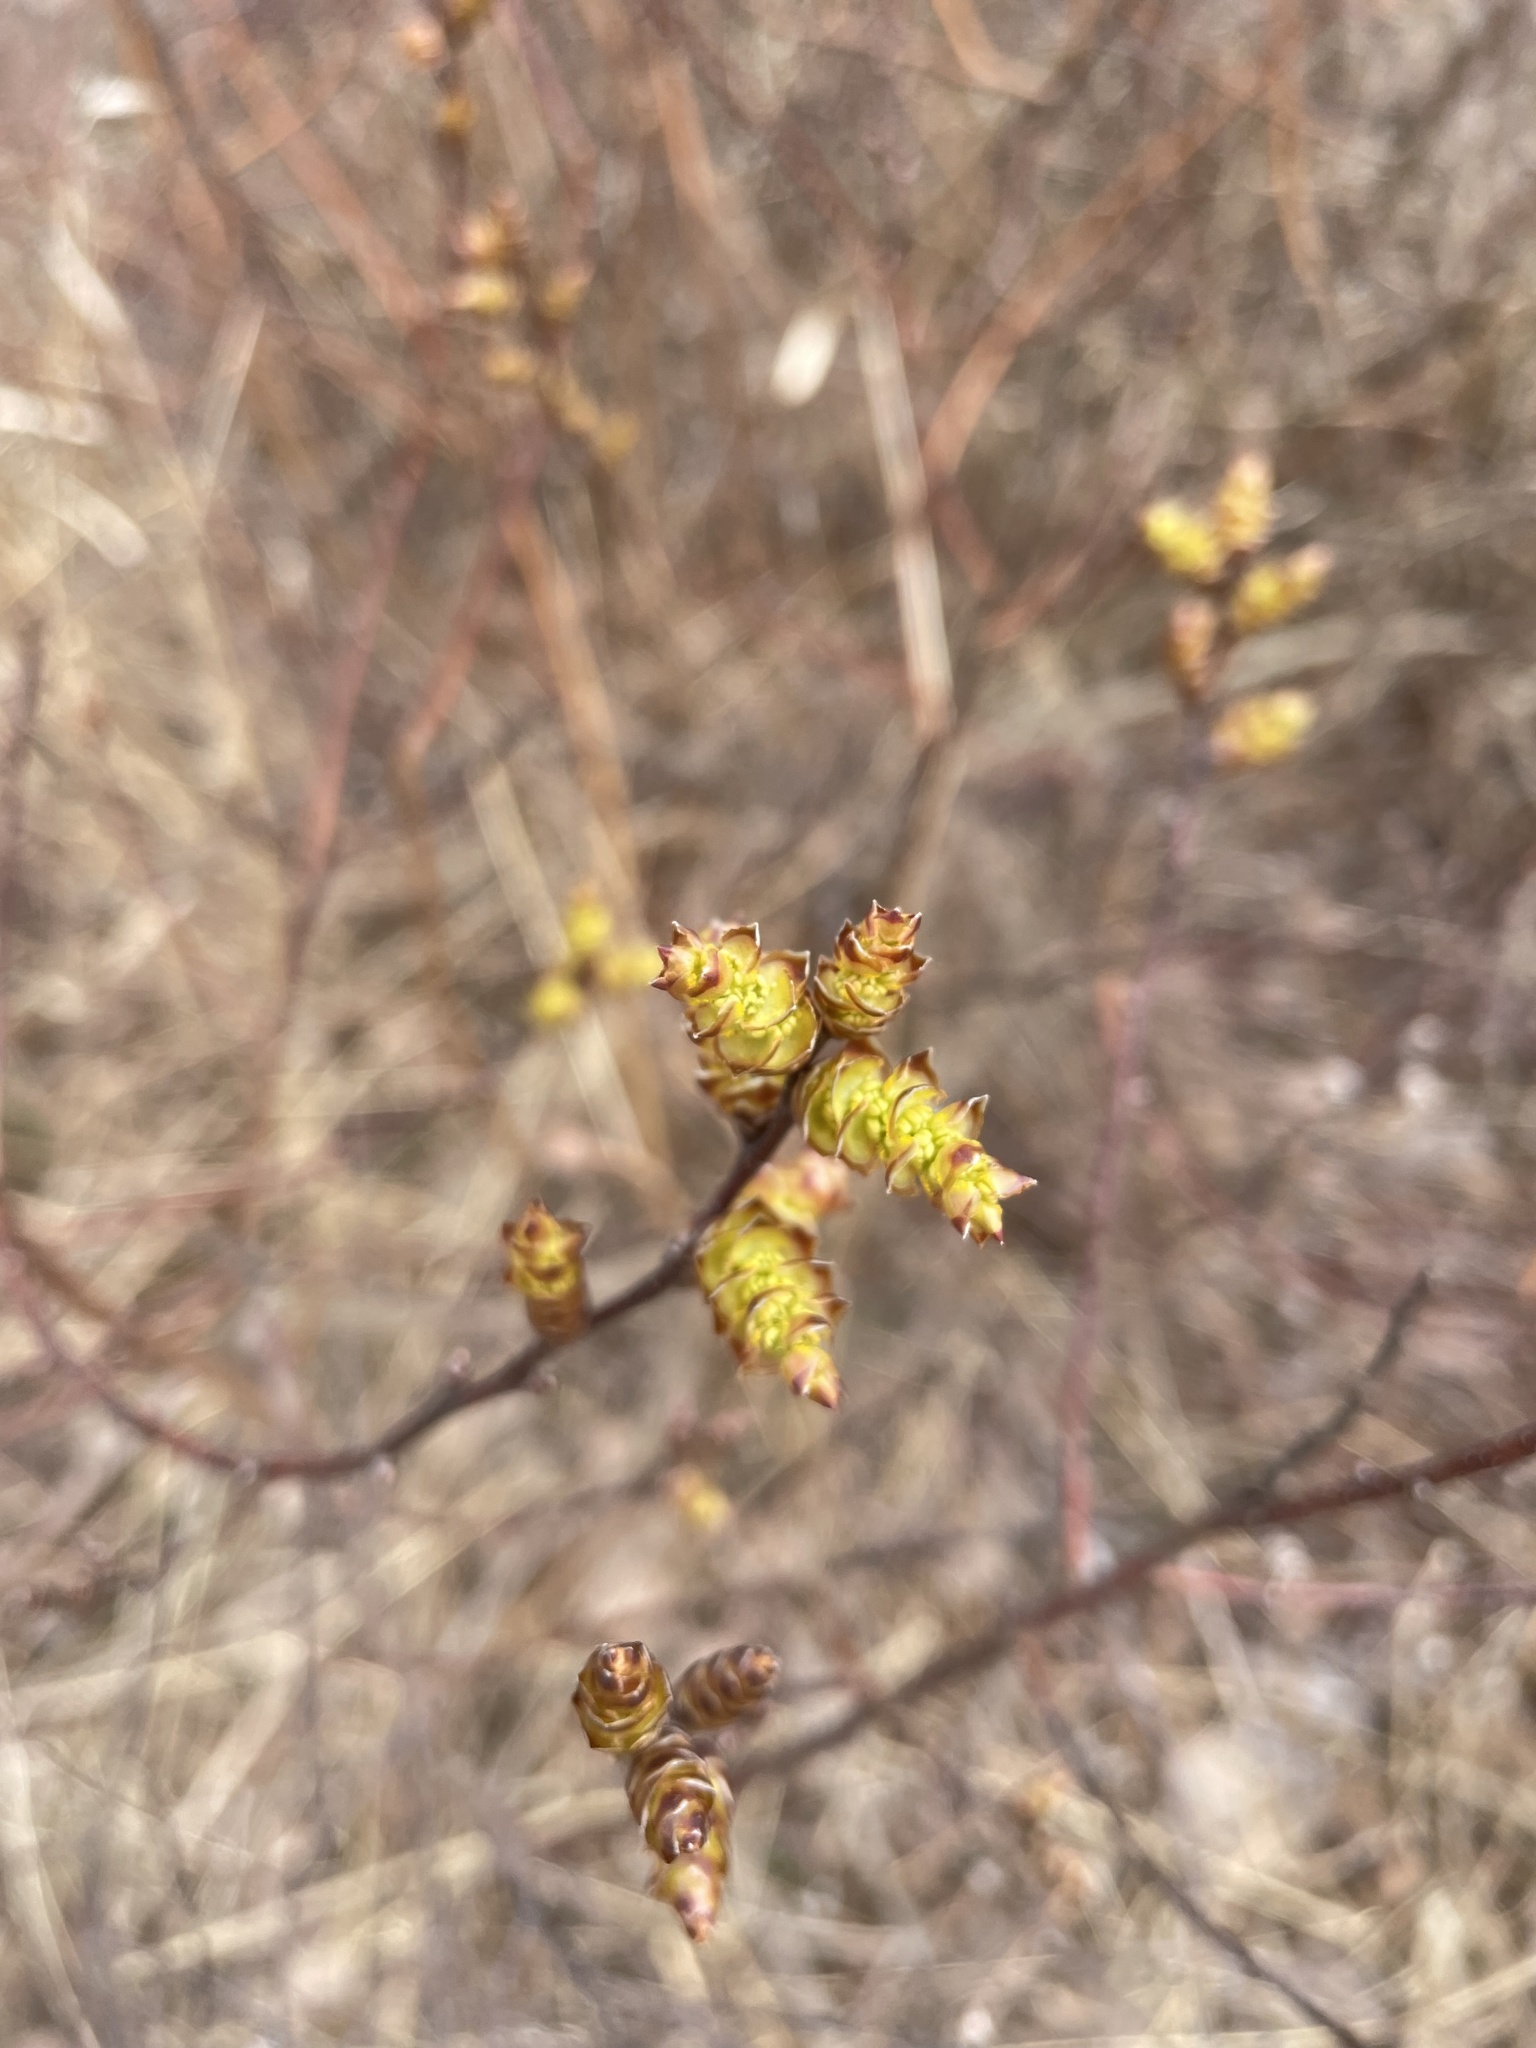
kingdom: Plantae
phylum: Tracheophyta
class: Magnoliopsida
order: Fagales
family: Myricaceae
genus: Myrica
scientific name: Myrica gale
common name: Sweet gale
